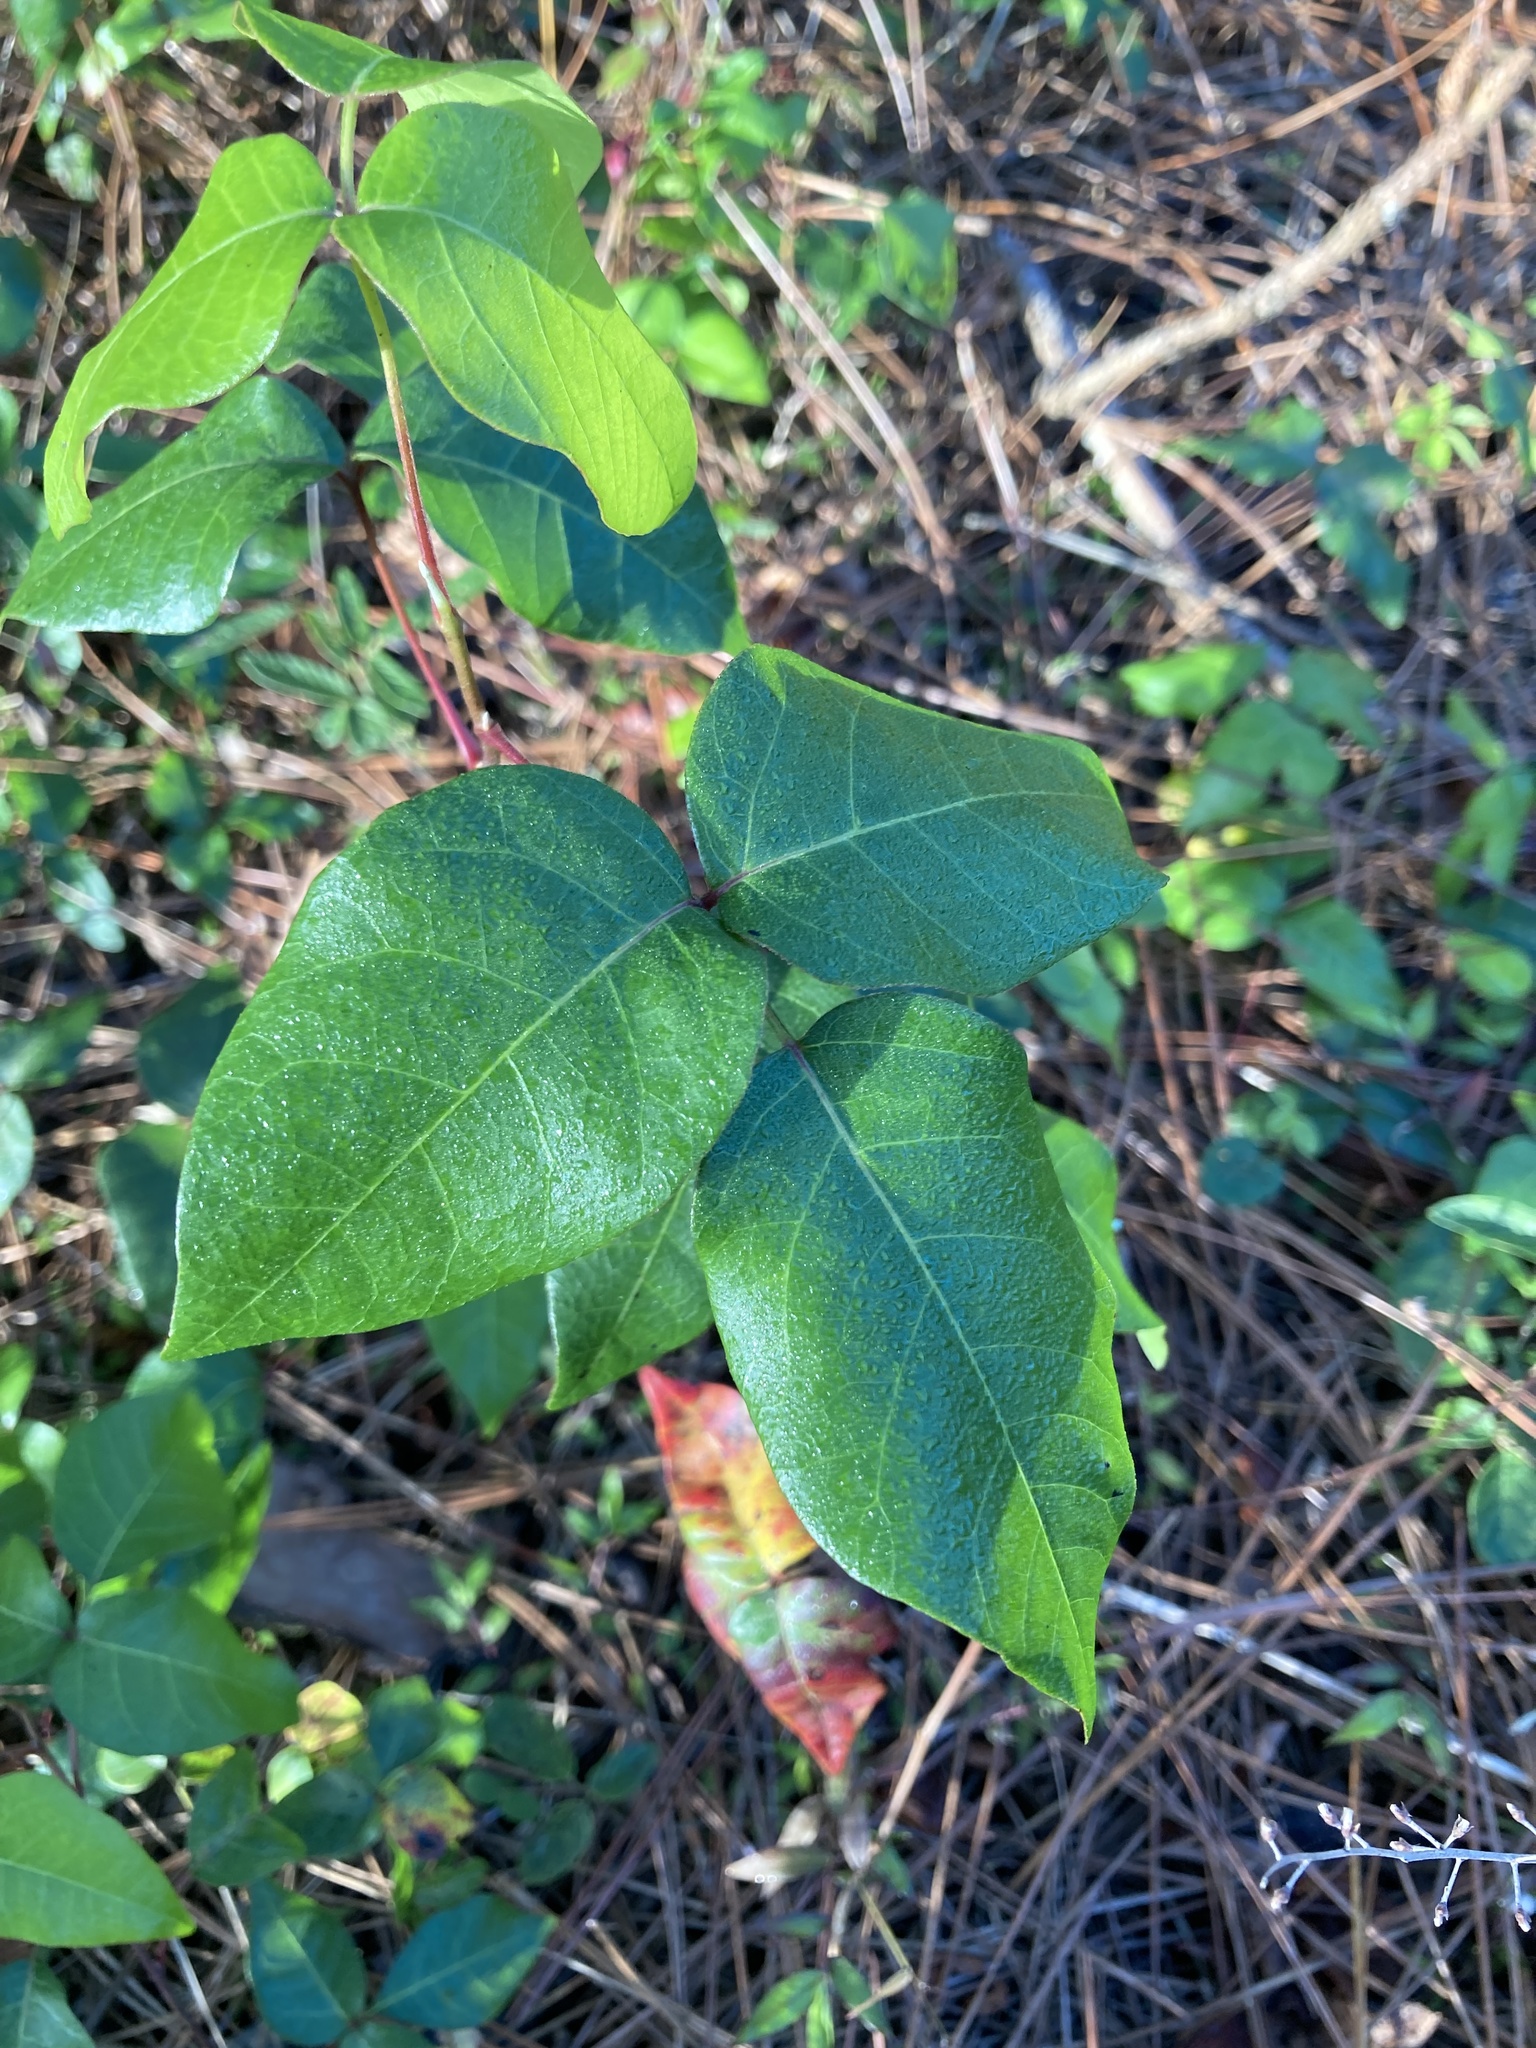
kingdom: Plantae
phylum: Tracheophyta
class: Magnoliopsida
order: Sapindales
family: Anacardiaceae
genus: Toxicodendron
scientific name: Toxicodendron radicans
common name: Poison ivy
